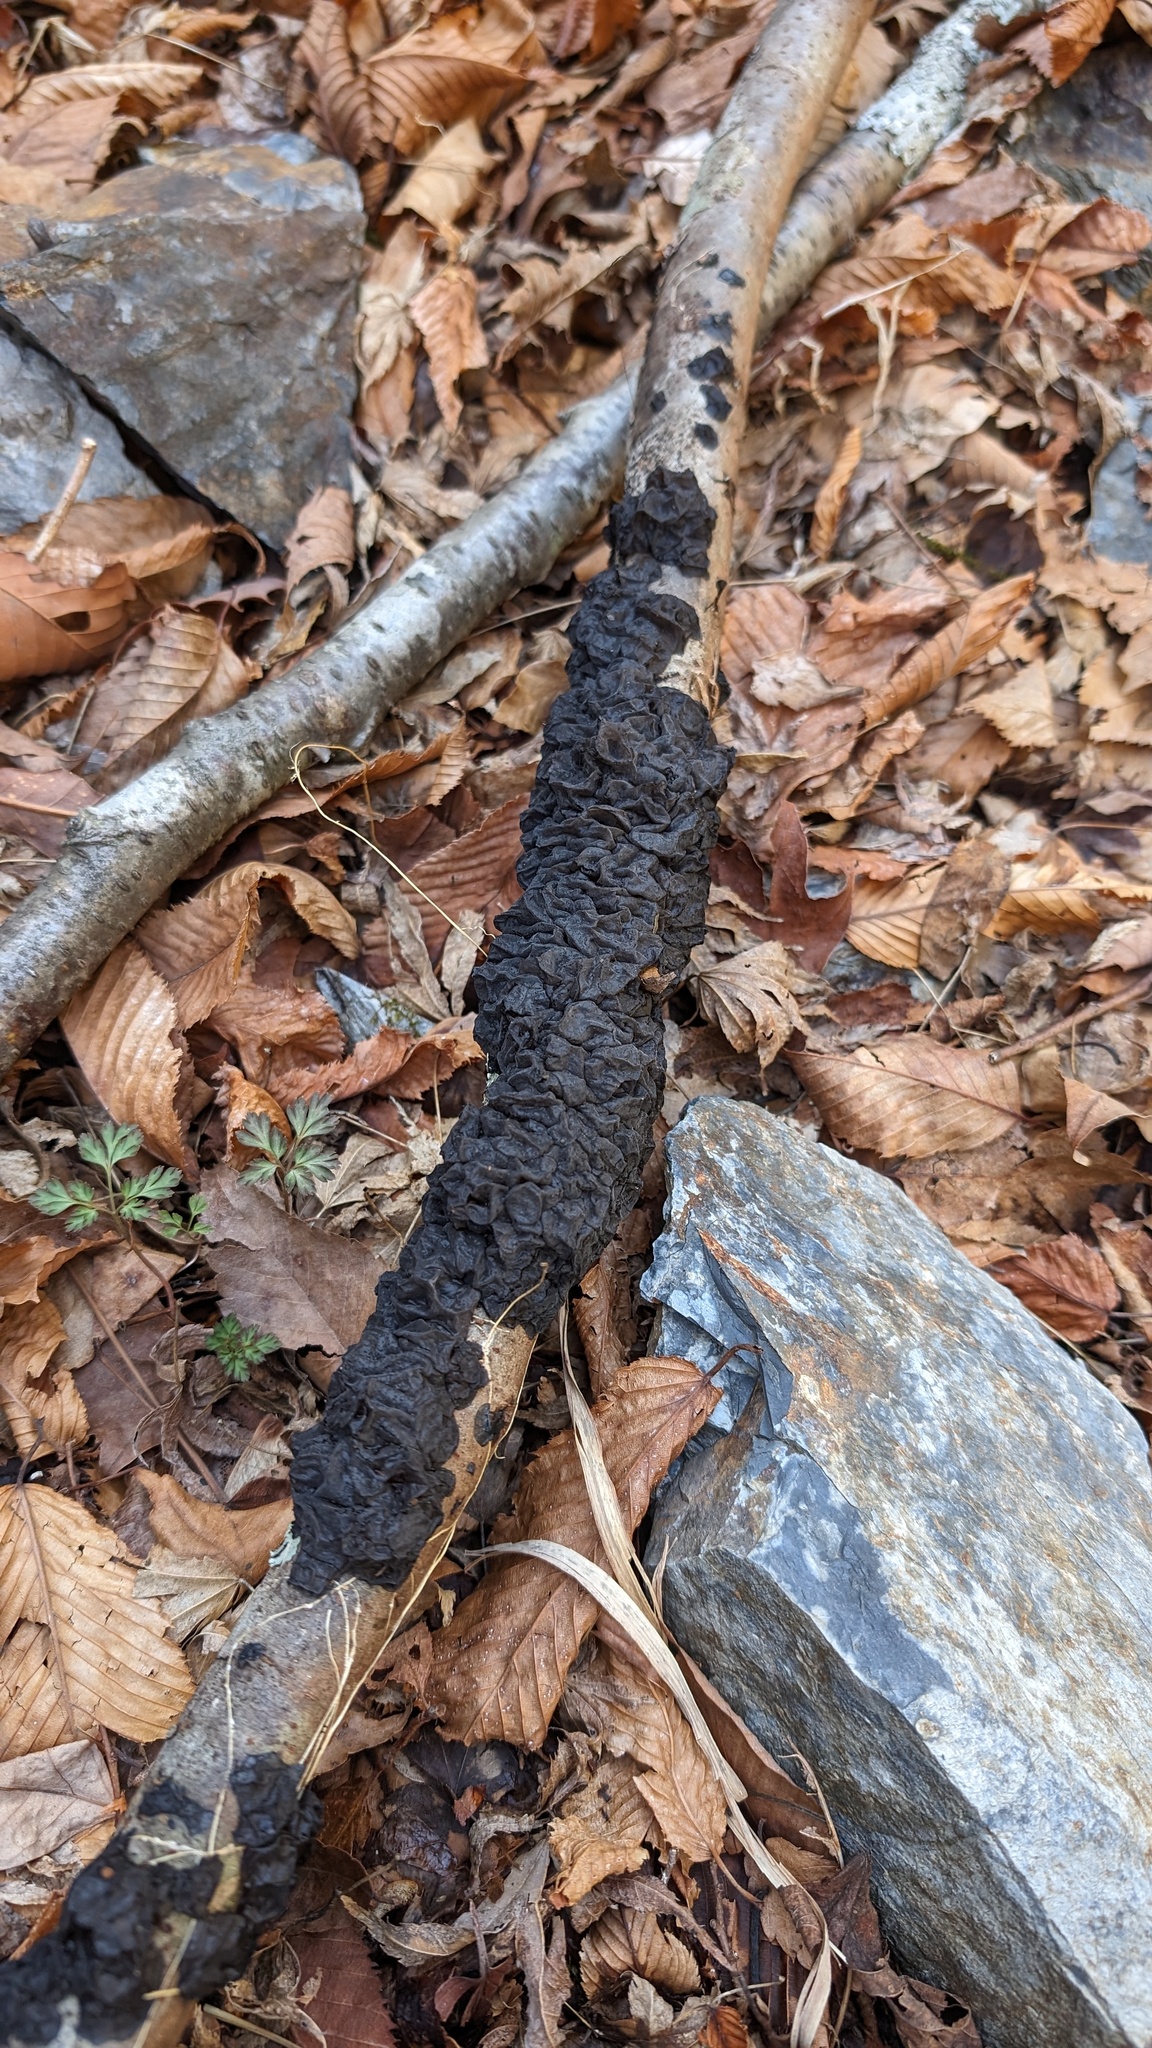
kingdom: Fungi
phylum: Basidiomycota
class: Agaricomycetes
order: Auriculariales
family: Auriculariaceae
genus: Exidia
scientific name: Exidia glandulosa
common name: Witches' butter
